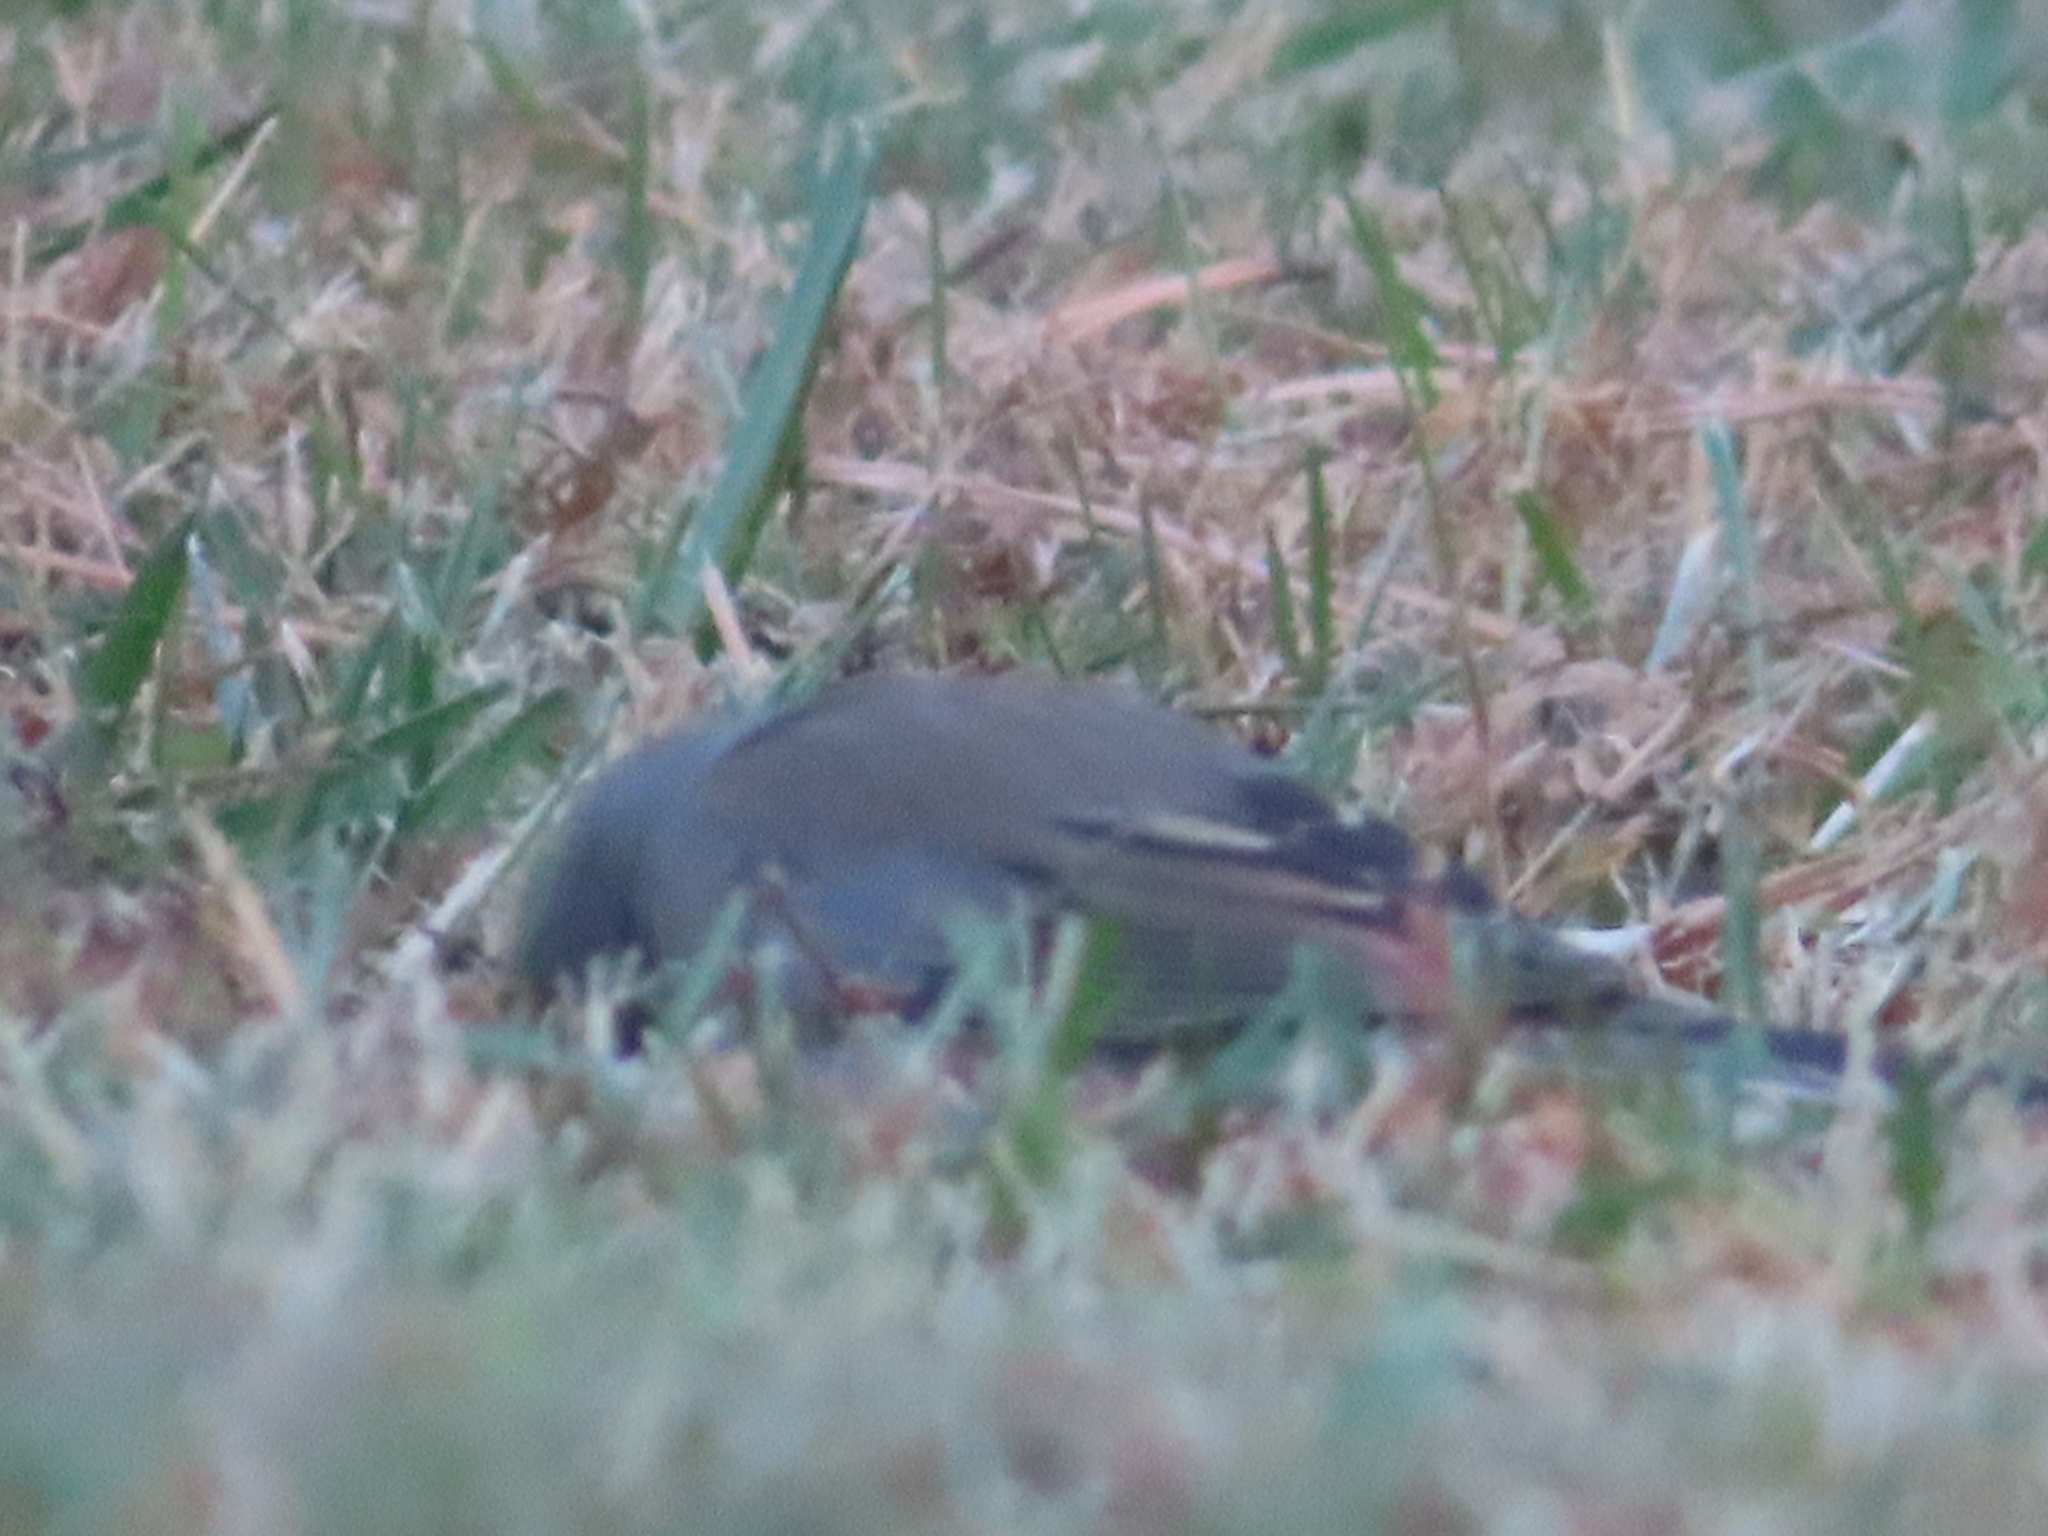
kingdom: Animalia
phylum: Chordata
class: Aves
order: Passeriformes
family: Passerellidae
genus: Junco
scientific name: Junco hyemalis
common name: Dark-eyed junco
